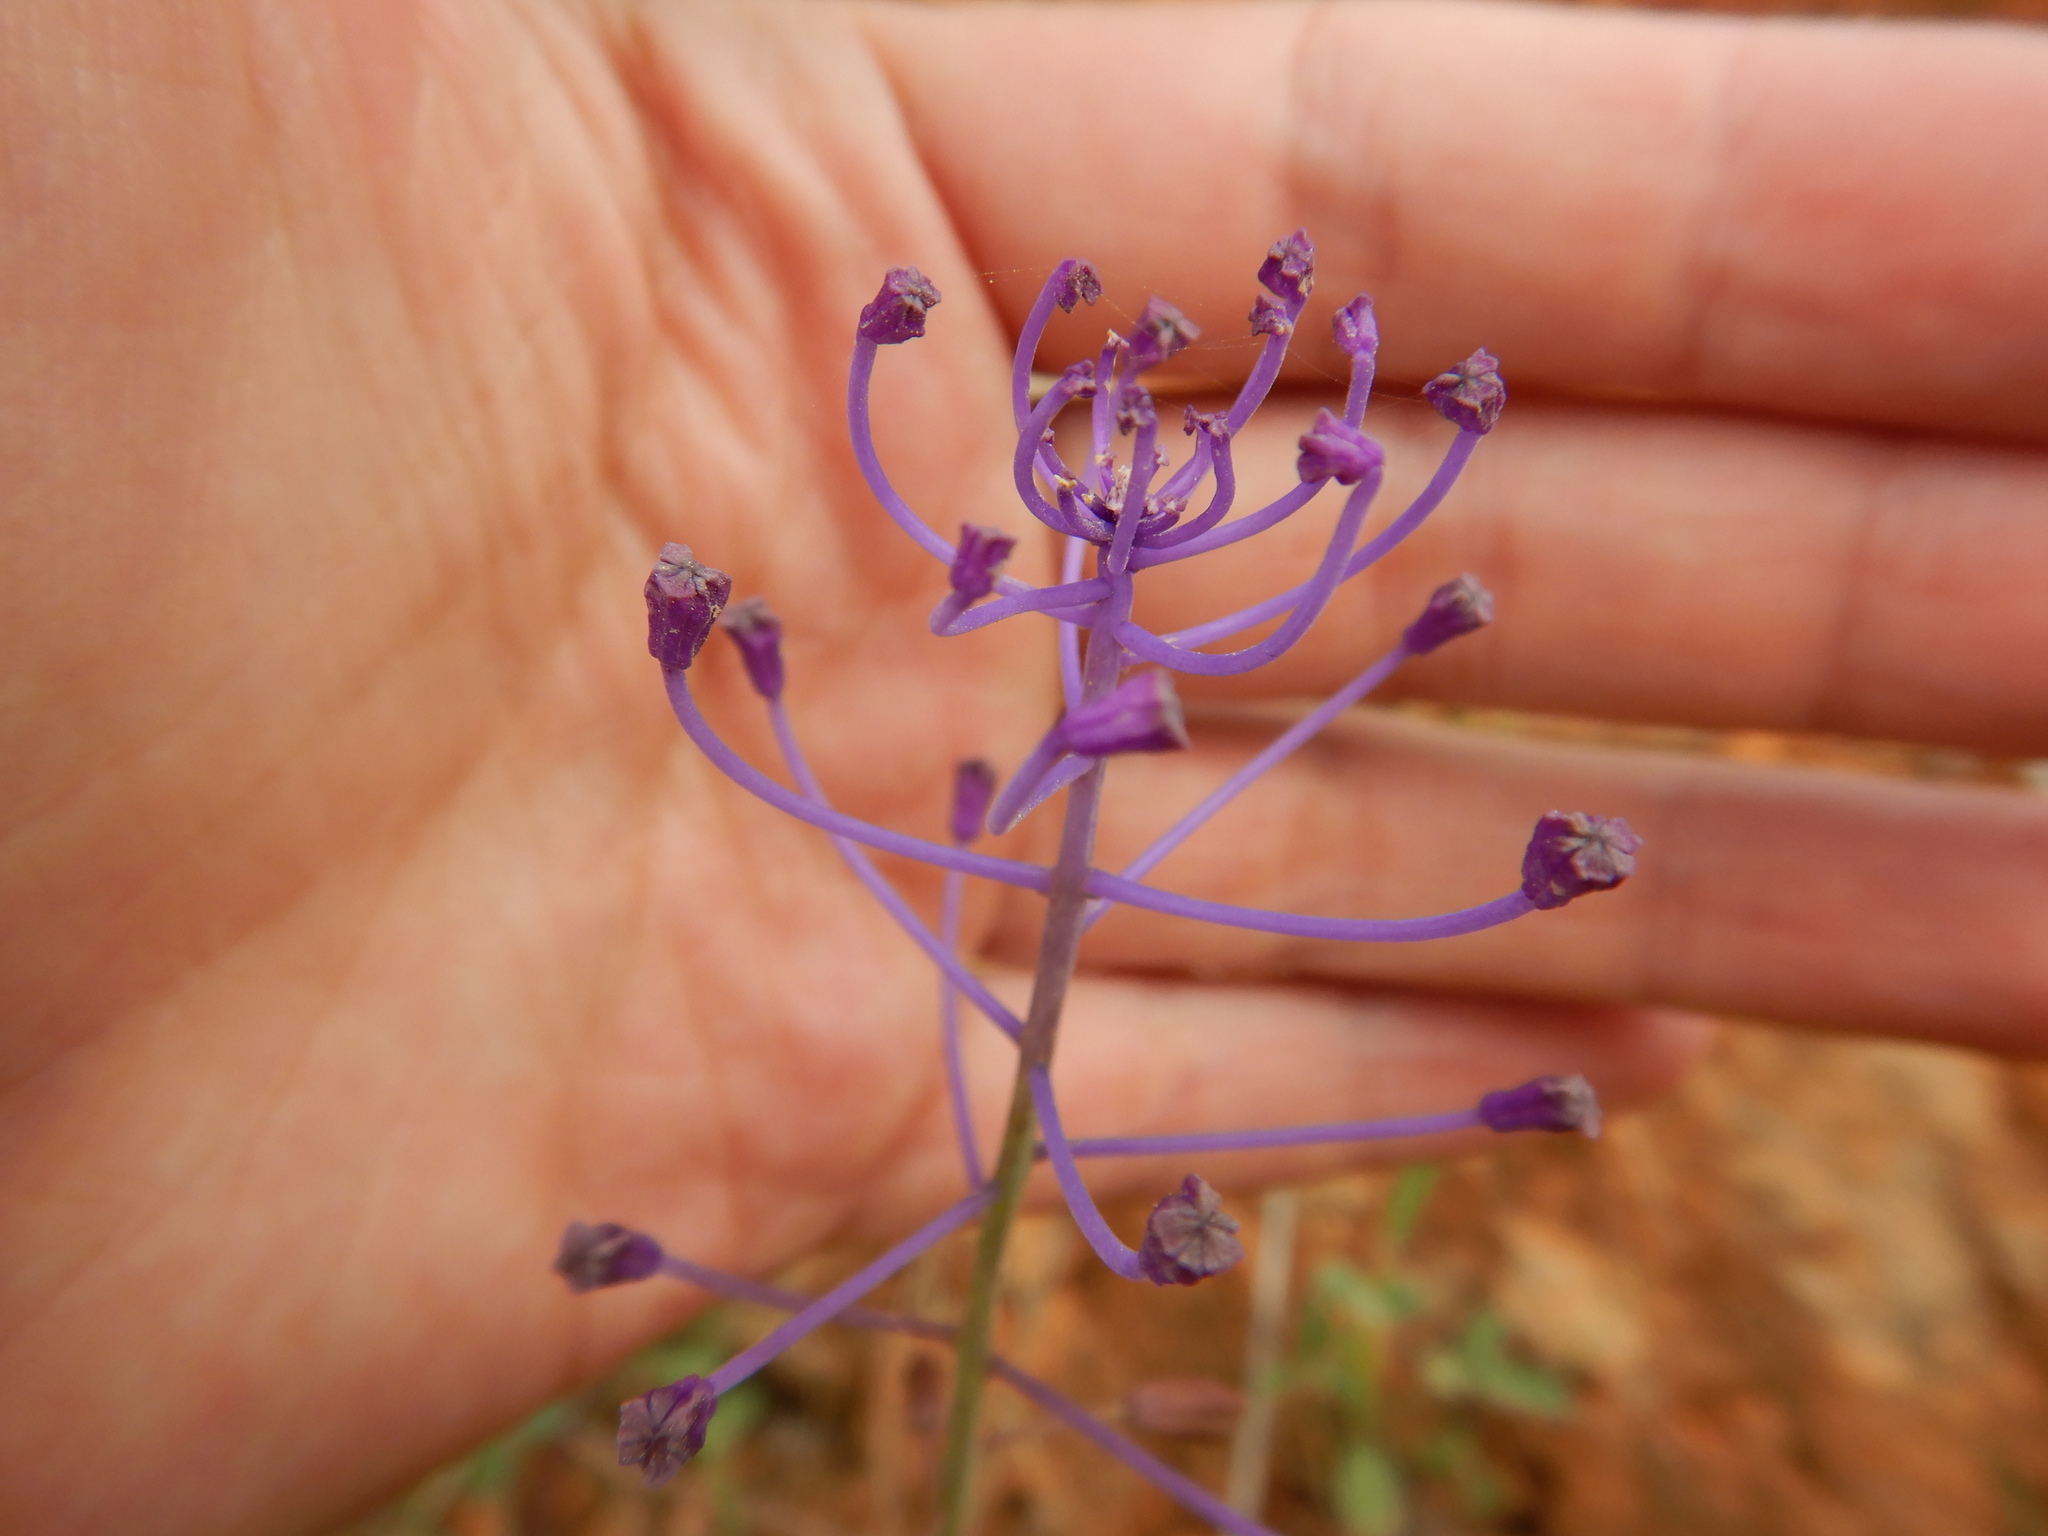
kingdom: Plantae
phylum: Tracheophyta
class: Liliopsida
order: Asparagales
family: Asparagaceae
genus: Muscari
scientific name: Muscari comosum
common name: Tassel hyacinth
